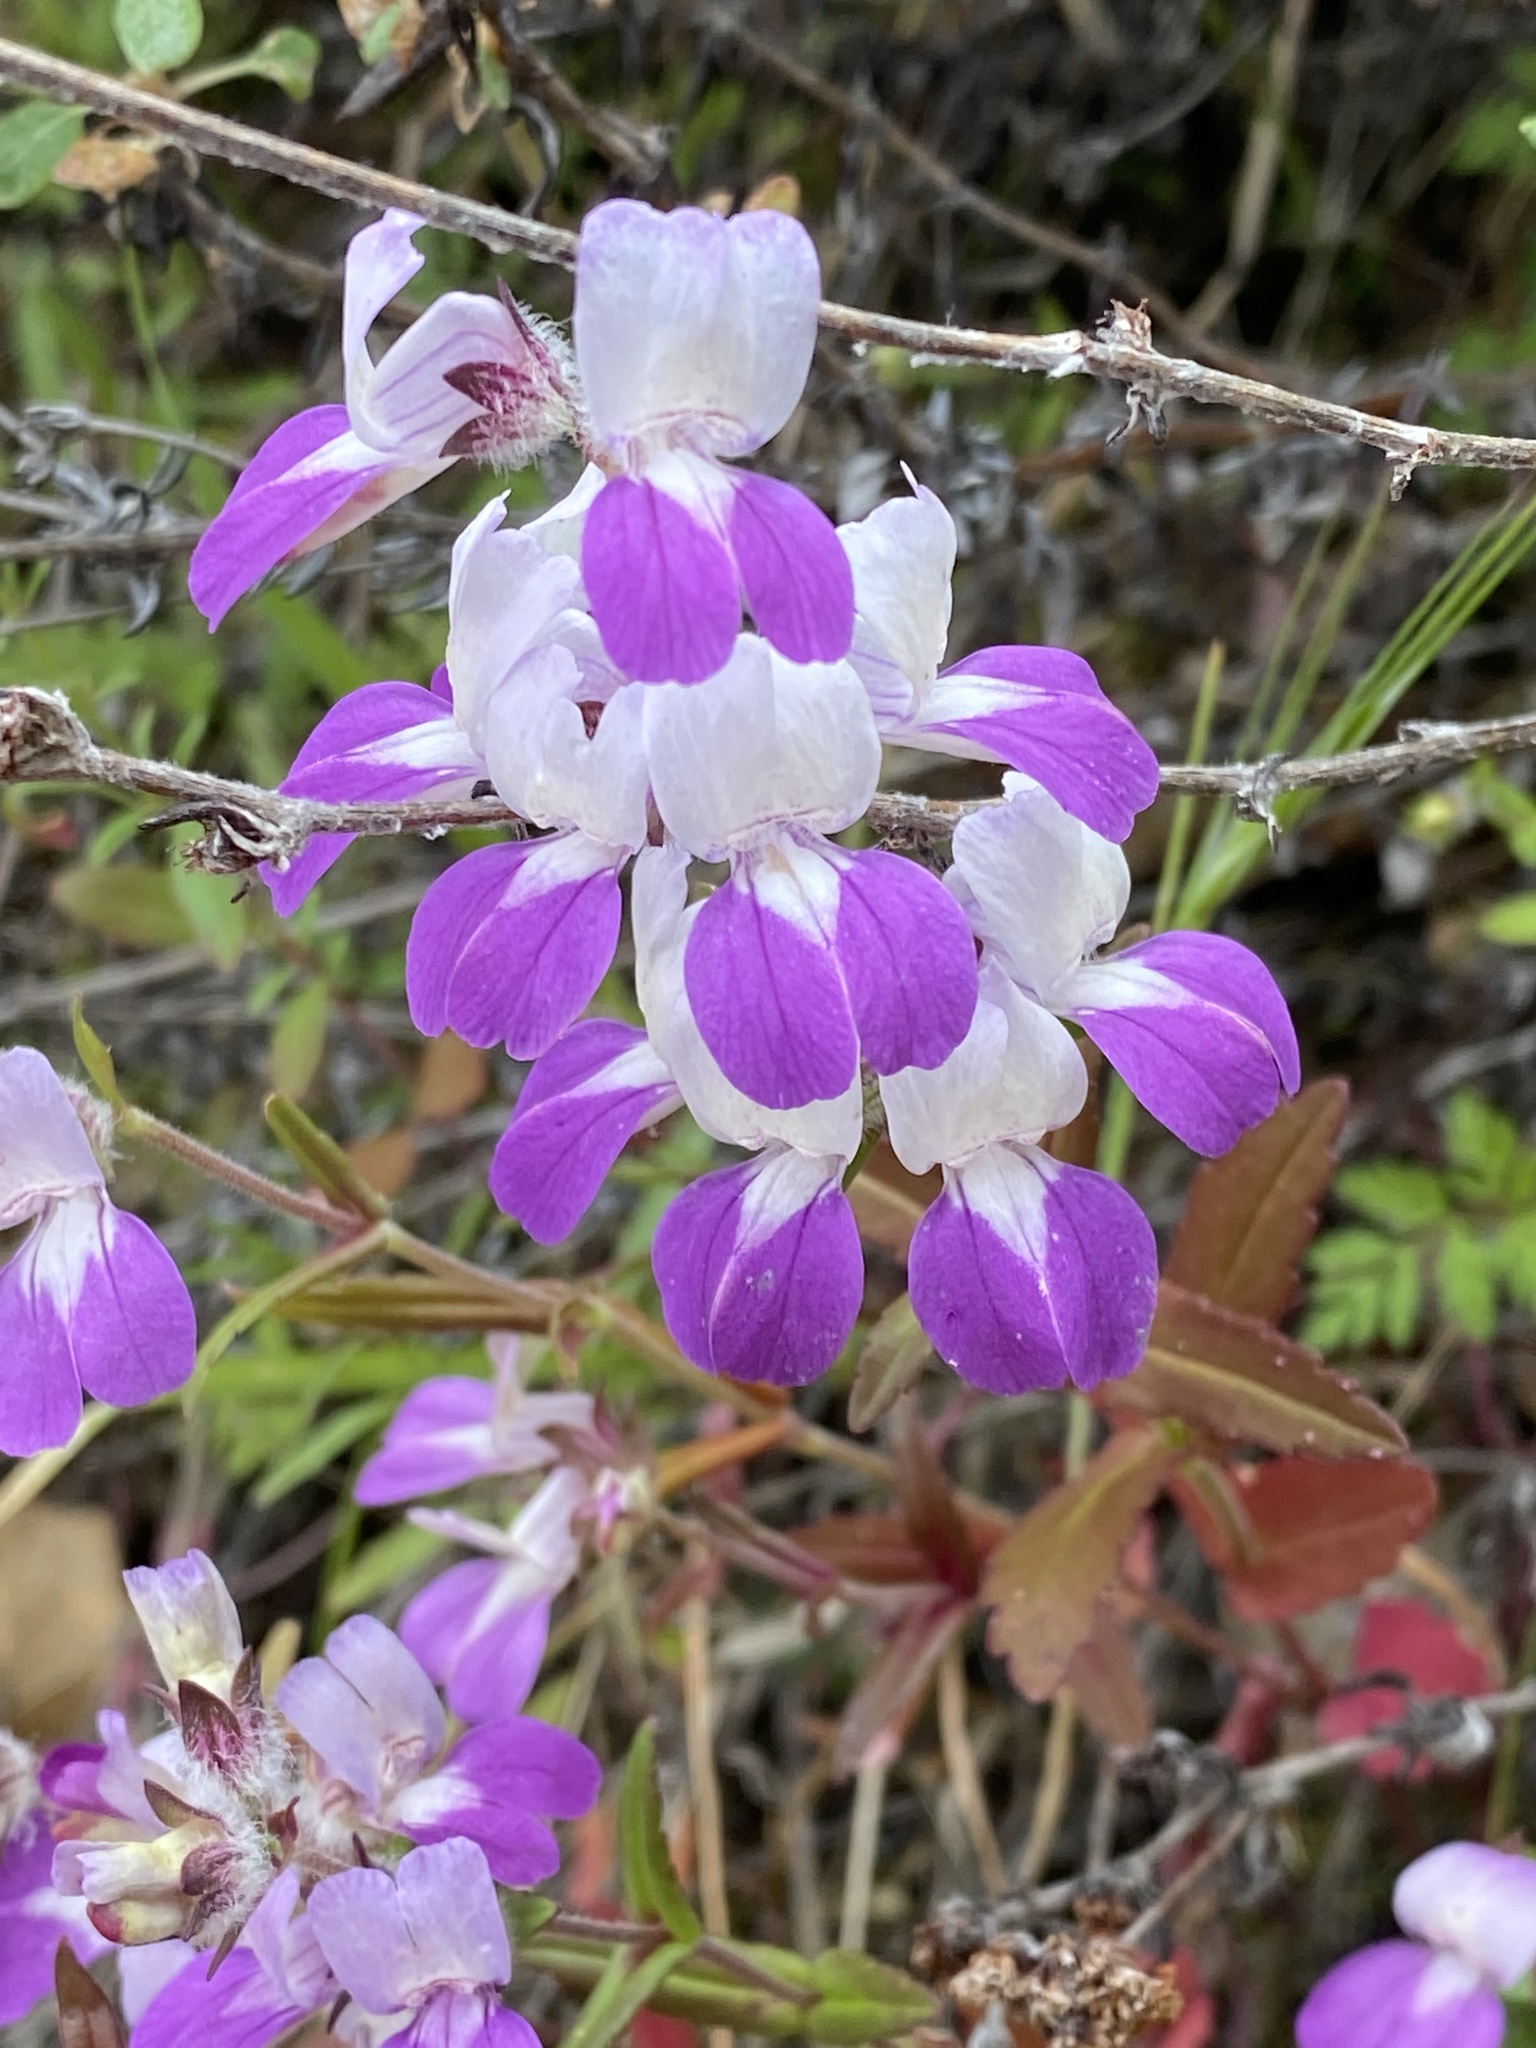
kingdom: Plantae
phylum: Tracheophyta
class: Magnoliopsida
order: Lamiales
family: Plantaginaceae
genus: Collinsia
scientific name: Collinsia heterophylla
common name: Chinese-houses
